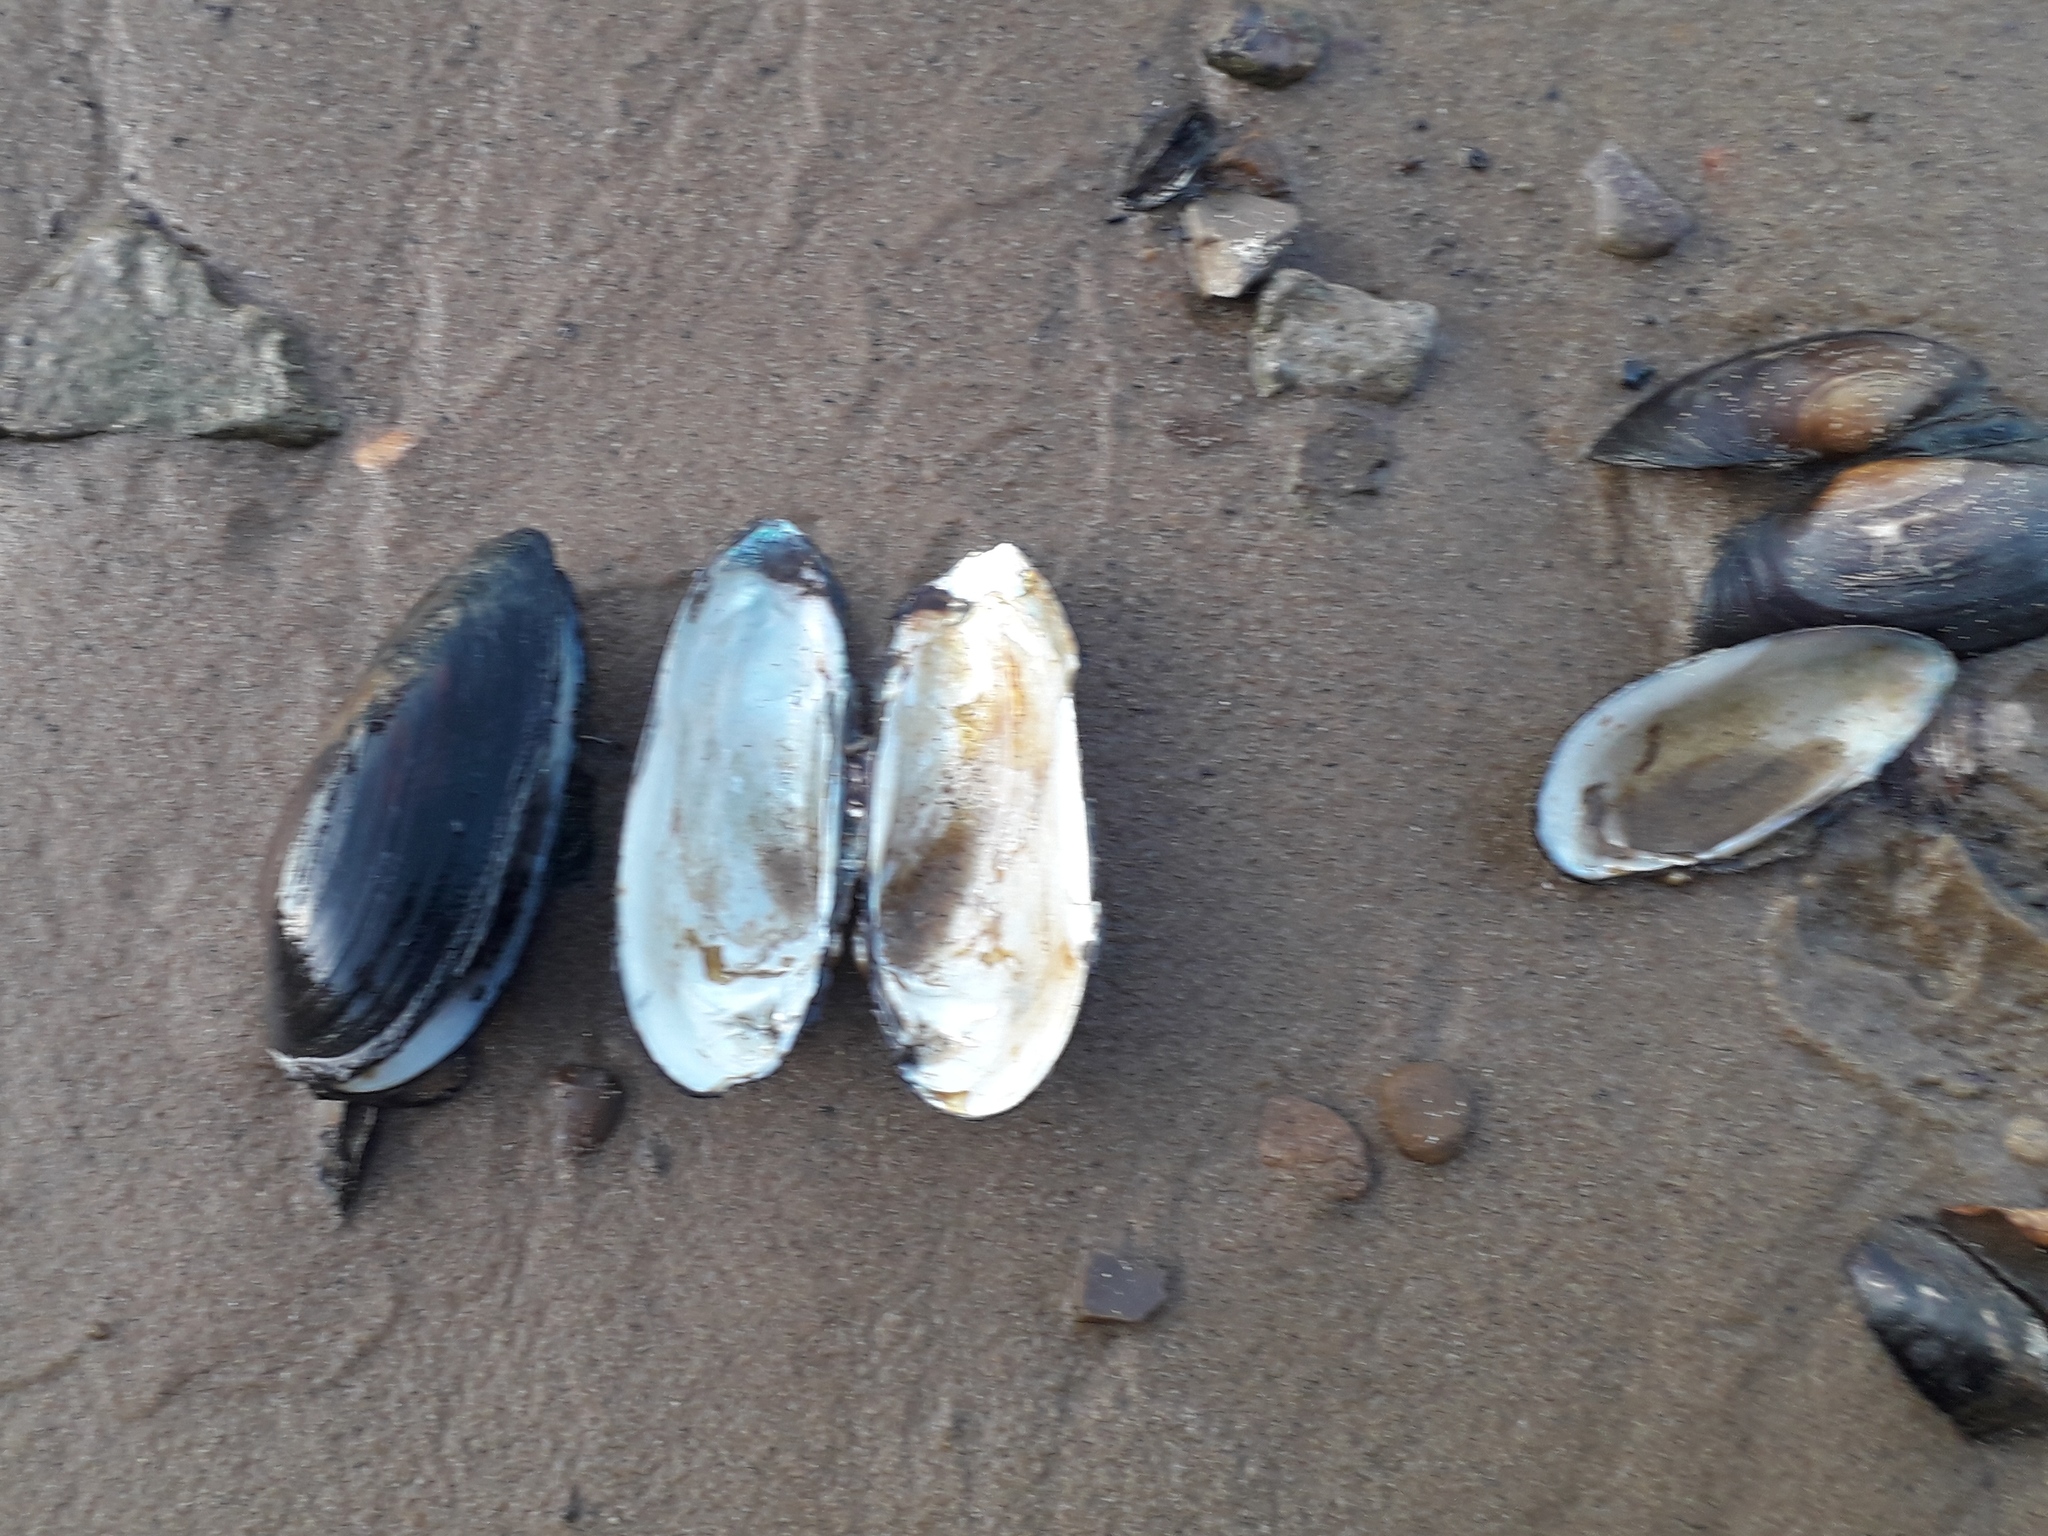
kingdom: Animalia
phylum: Mollusca
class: Bivalvia
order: Unionida
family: Unionidae
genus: Unio
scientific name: Unio pictorum
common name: Painter's mussel
